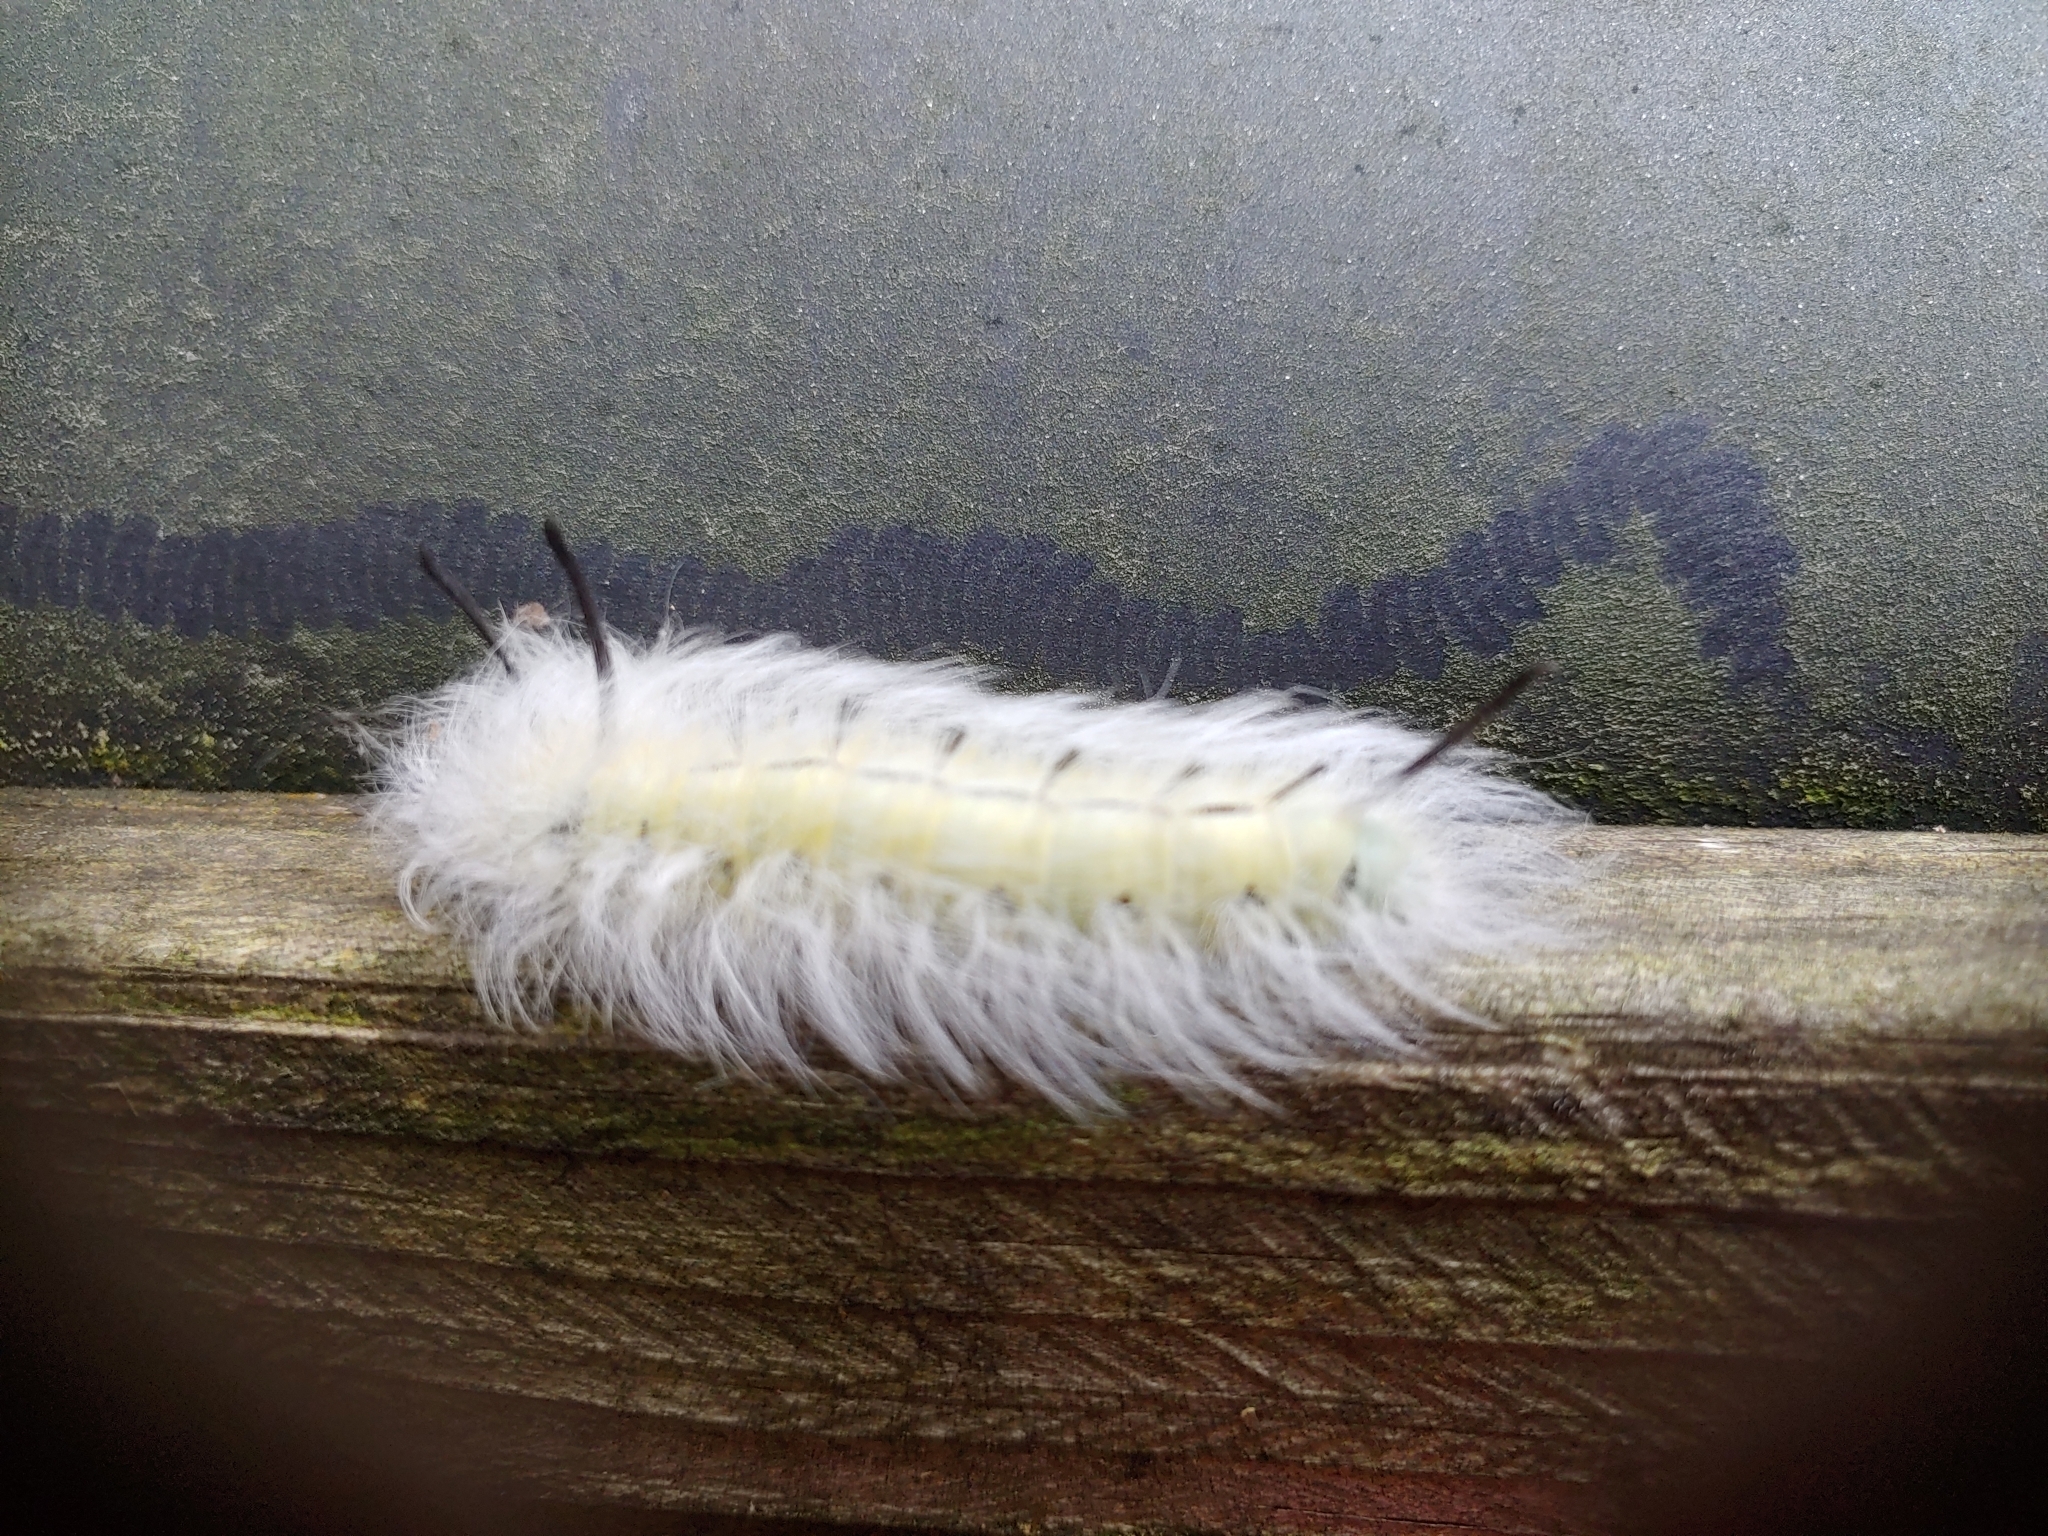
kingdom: Animalia
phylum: Arthropoda
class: Insecta
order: Lepidoptera
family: Apatelodidae
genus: Hygrochroa
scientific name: Hygrochroa Apatelodes torrefacta
